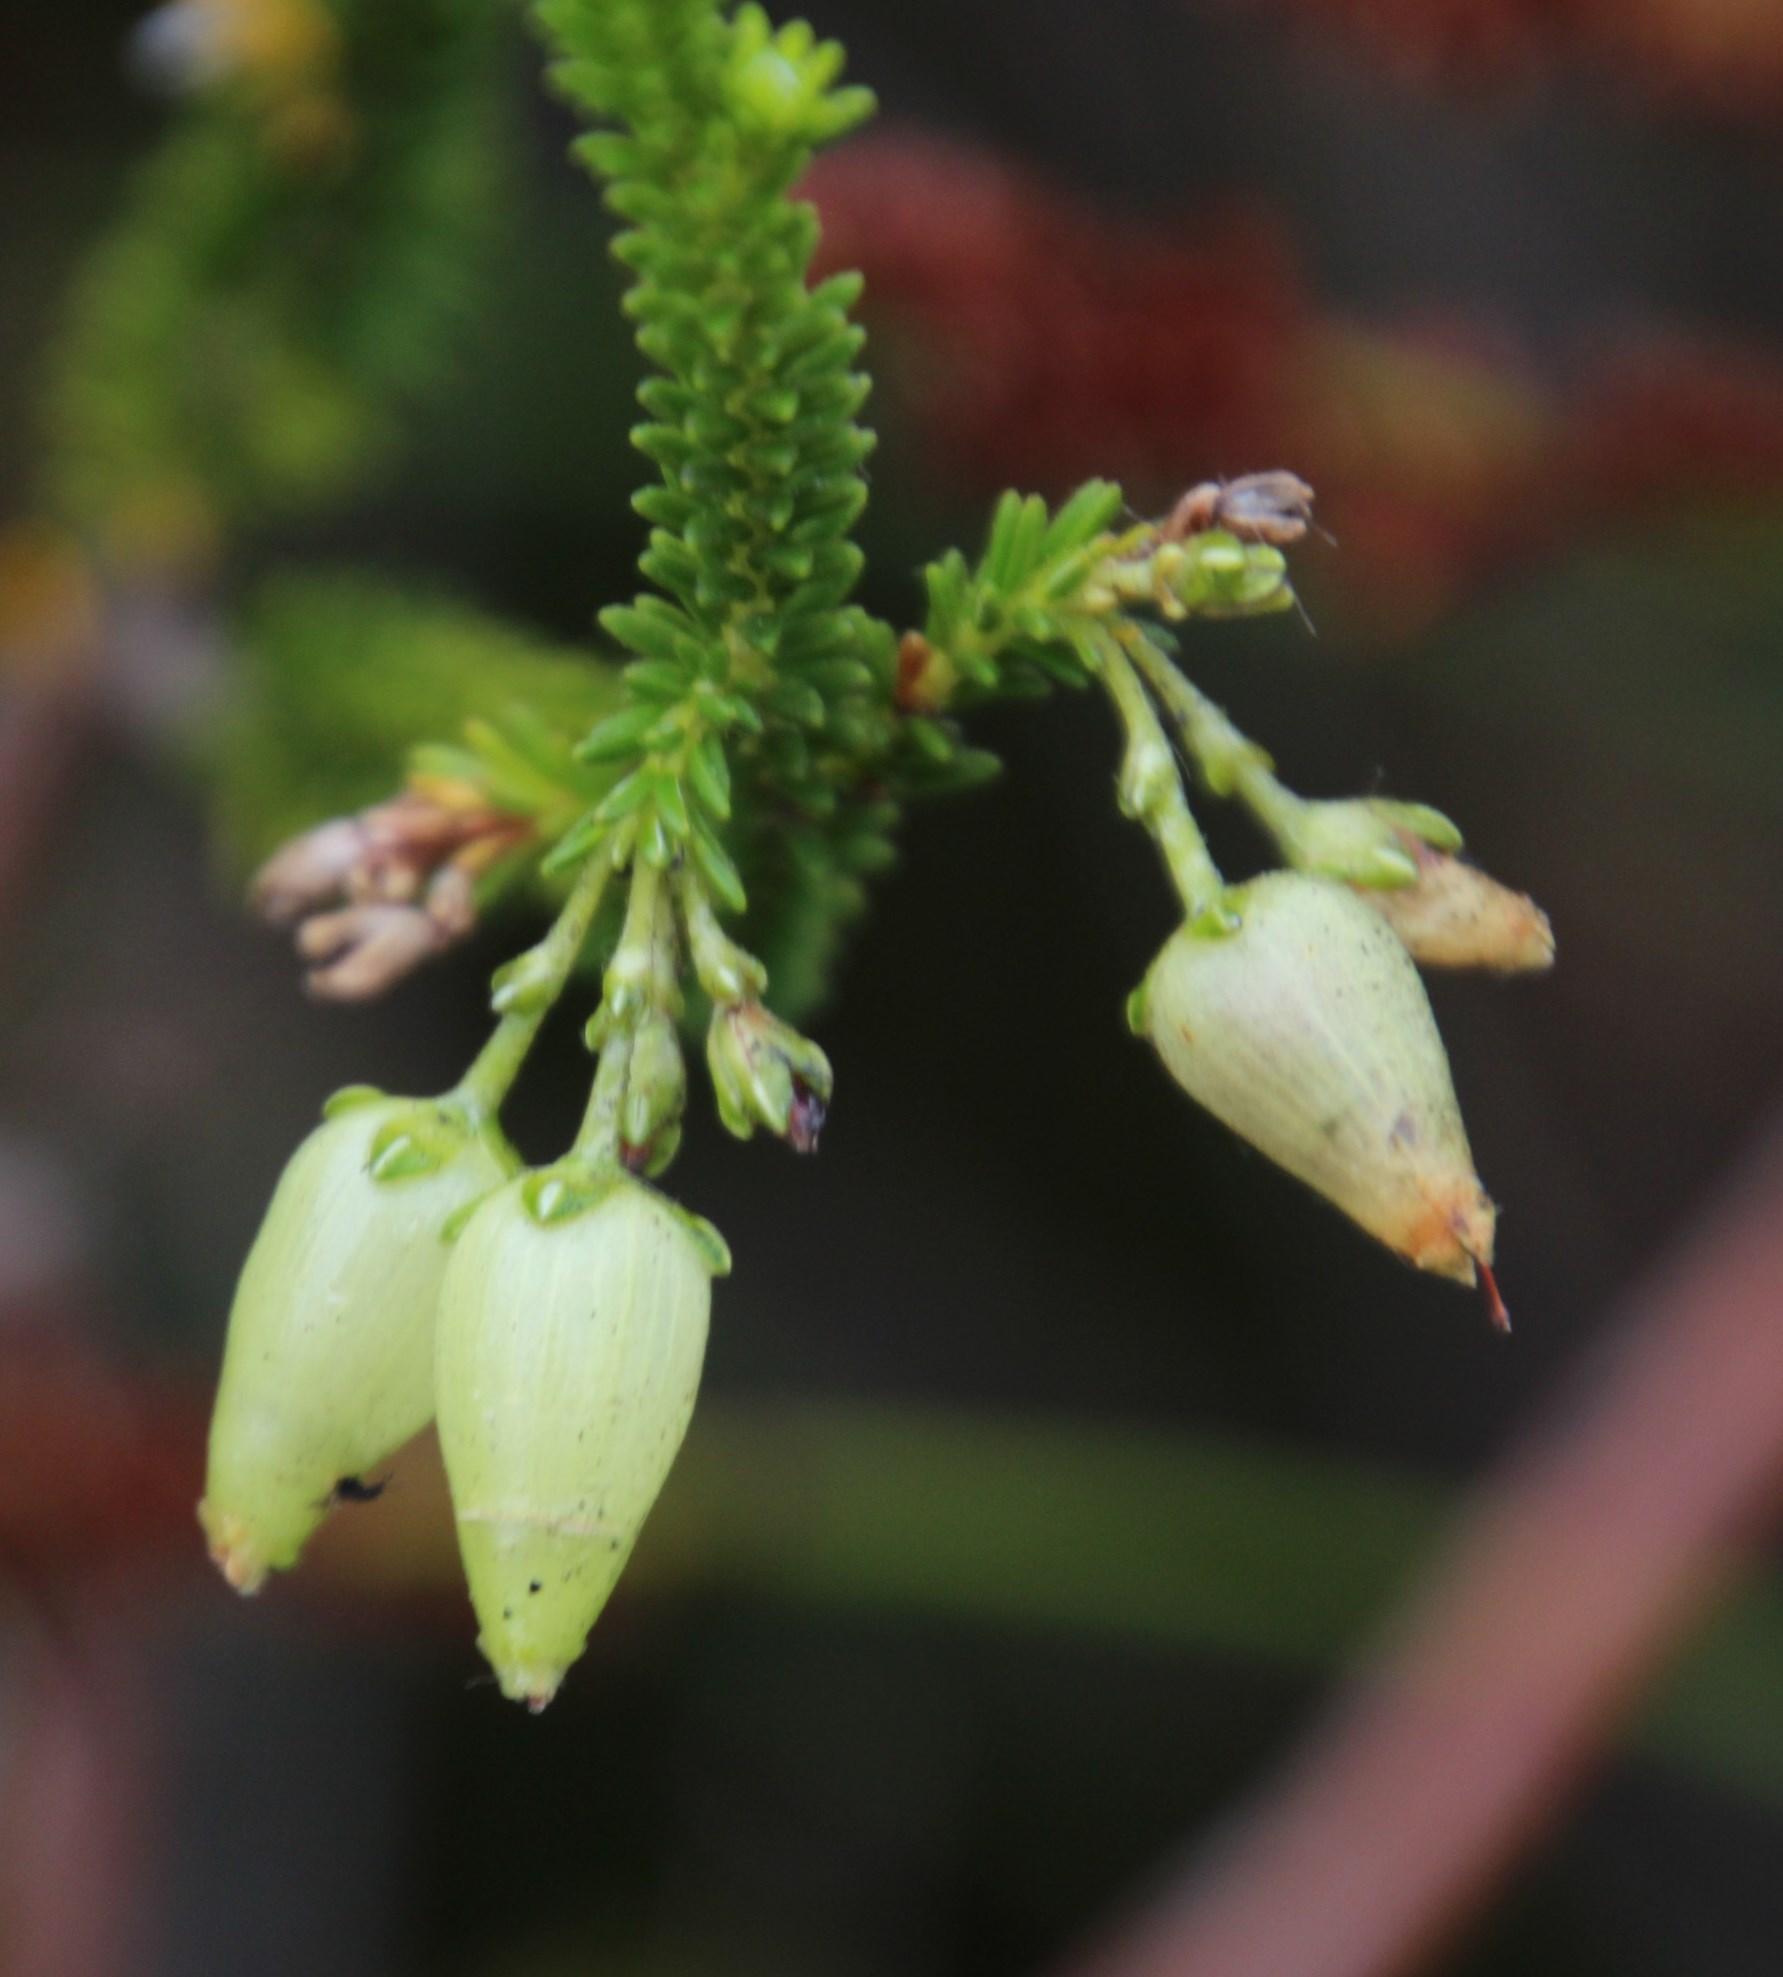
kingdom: Plantae
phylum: Tracheophyta
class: Magnoliopsida
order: Ericales
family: Ericaceae
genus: Erica
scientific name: Erica urna-viridis
